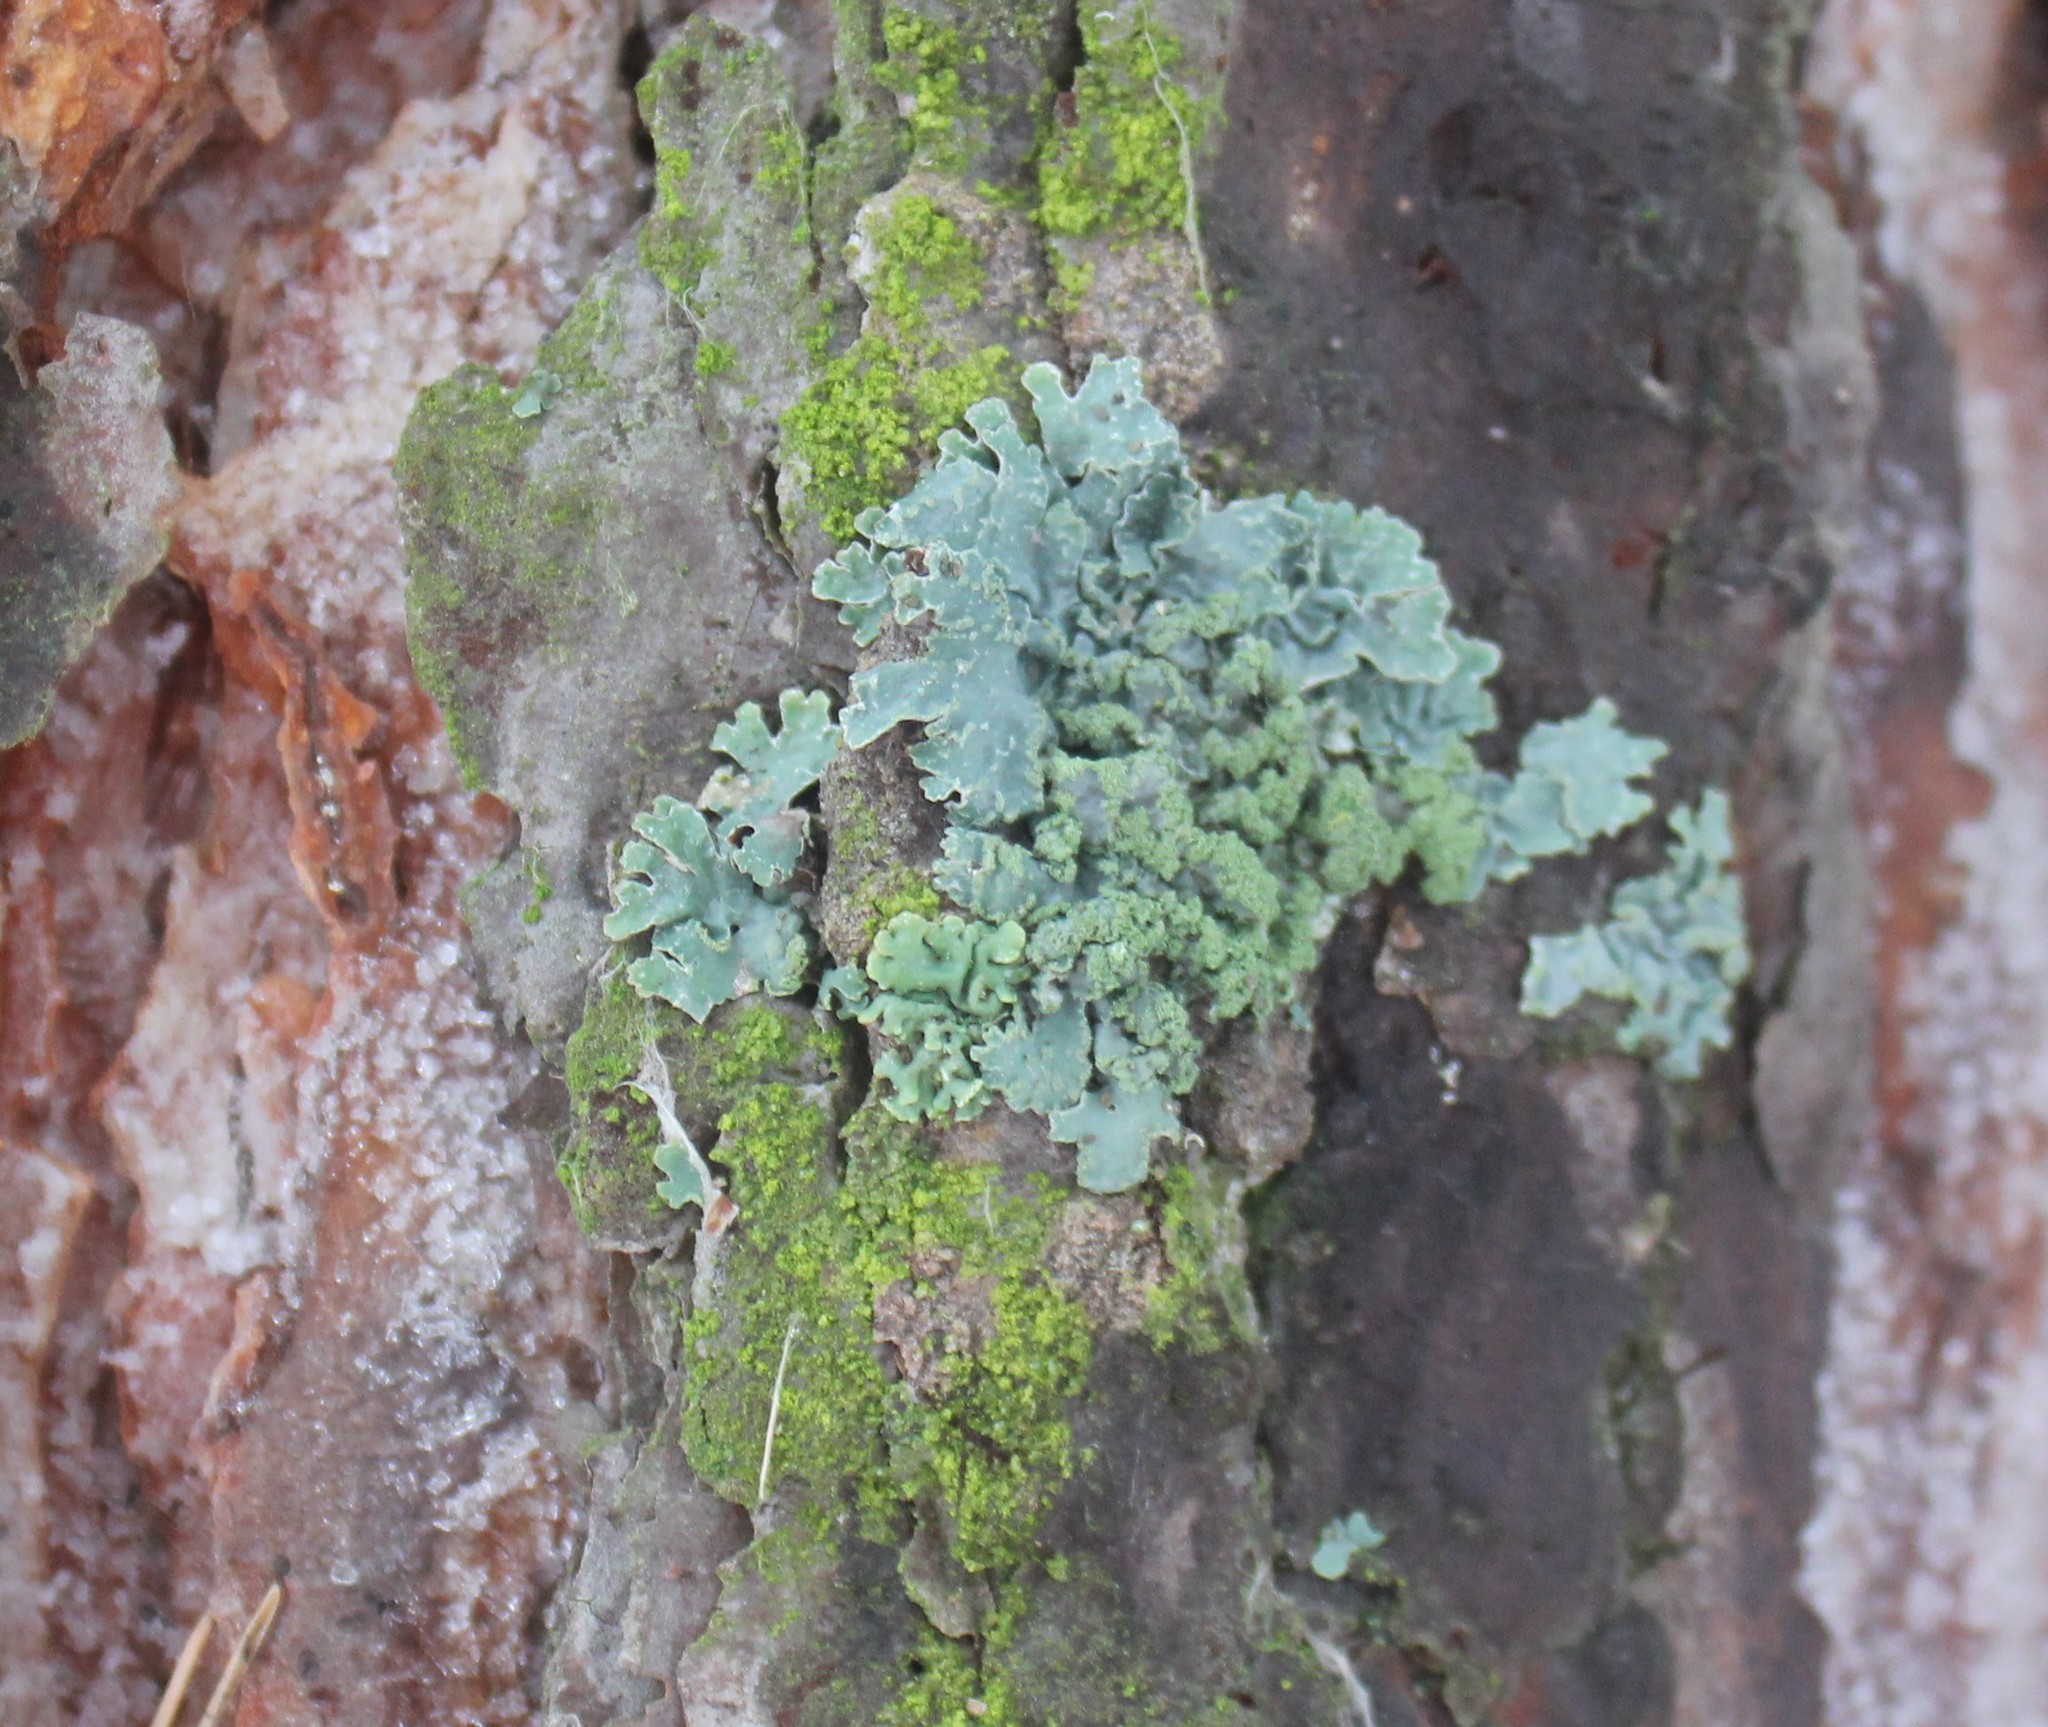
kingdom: Fungi
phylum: Ascomycota
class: Lecanoromycetes
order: Lecanorales
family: Parmeliaceae
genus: Parmelia
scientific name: Parmelia sulcata
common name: Netted shield lichen
